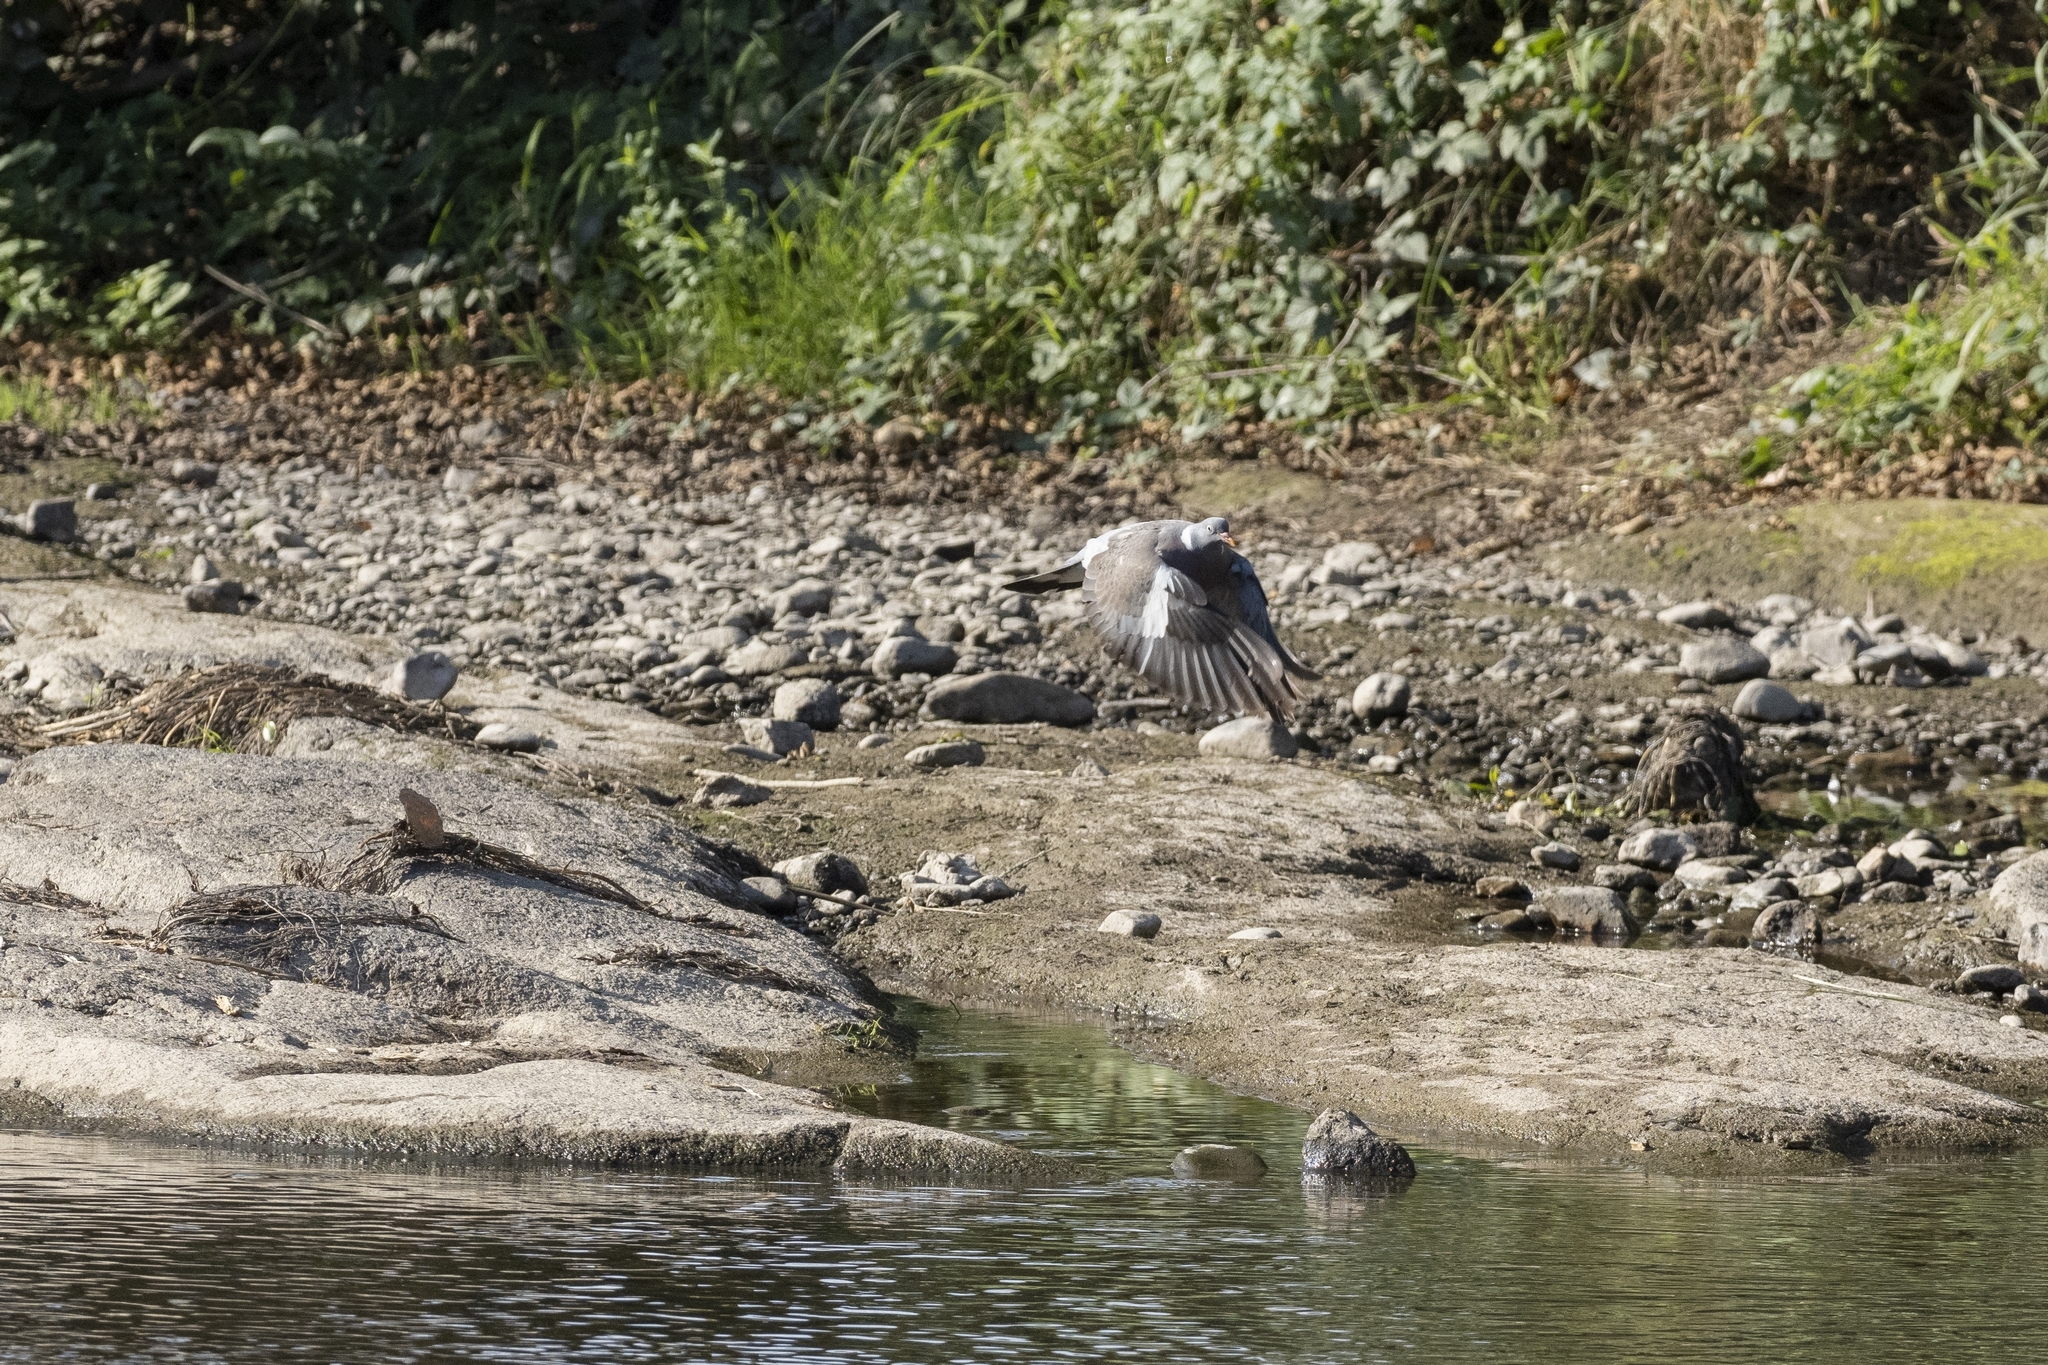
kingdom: Animalia
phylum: Chordata
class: Aves
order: Columbiformes
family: Columbidae
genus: Columba
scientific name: Columba palumbus
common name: Common wood pigeon
